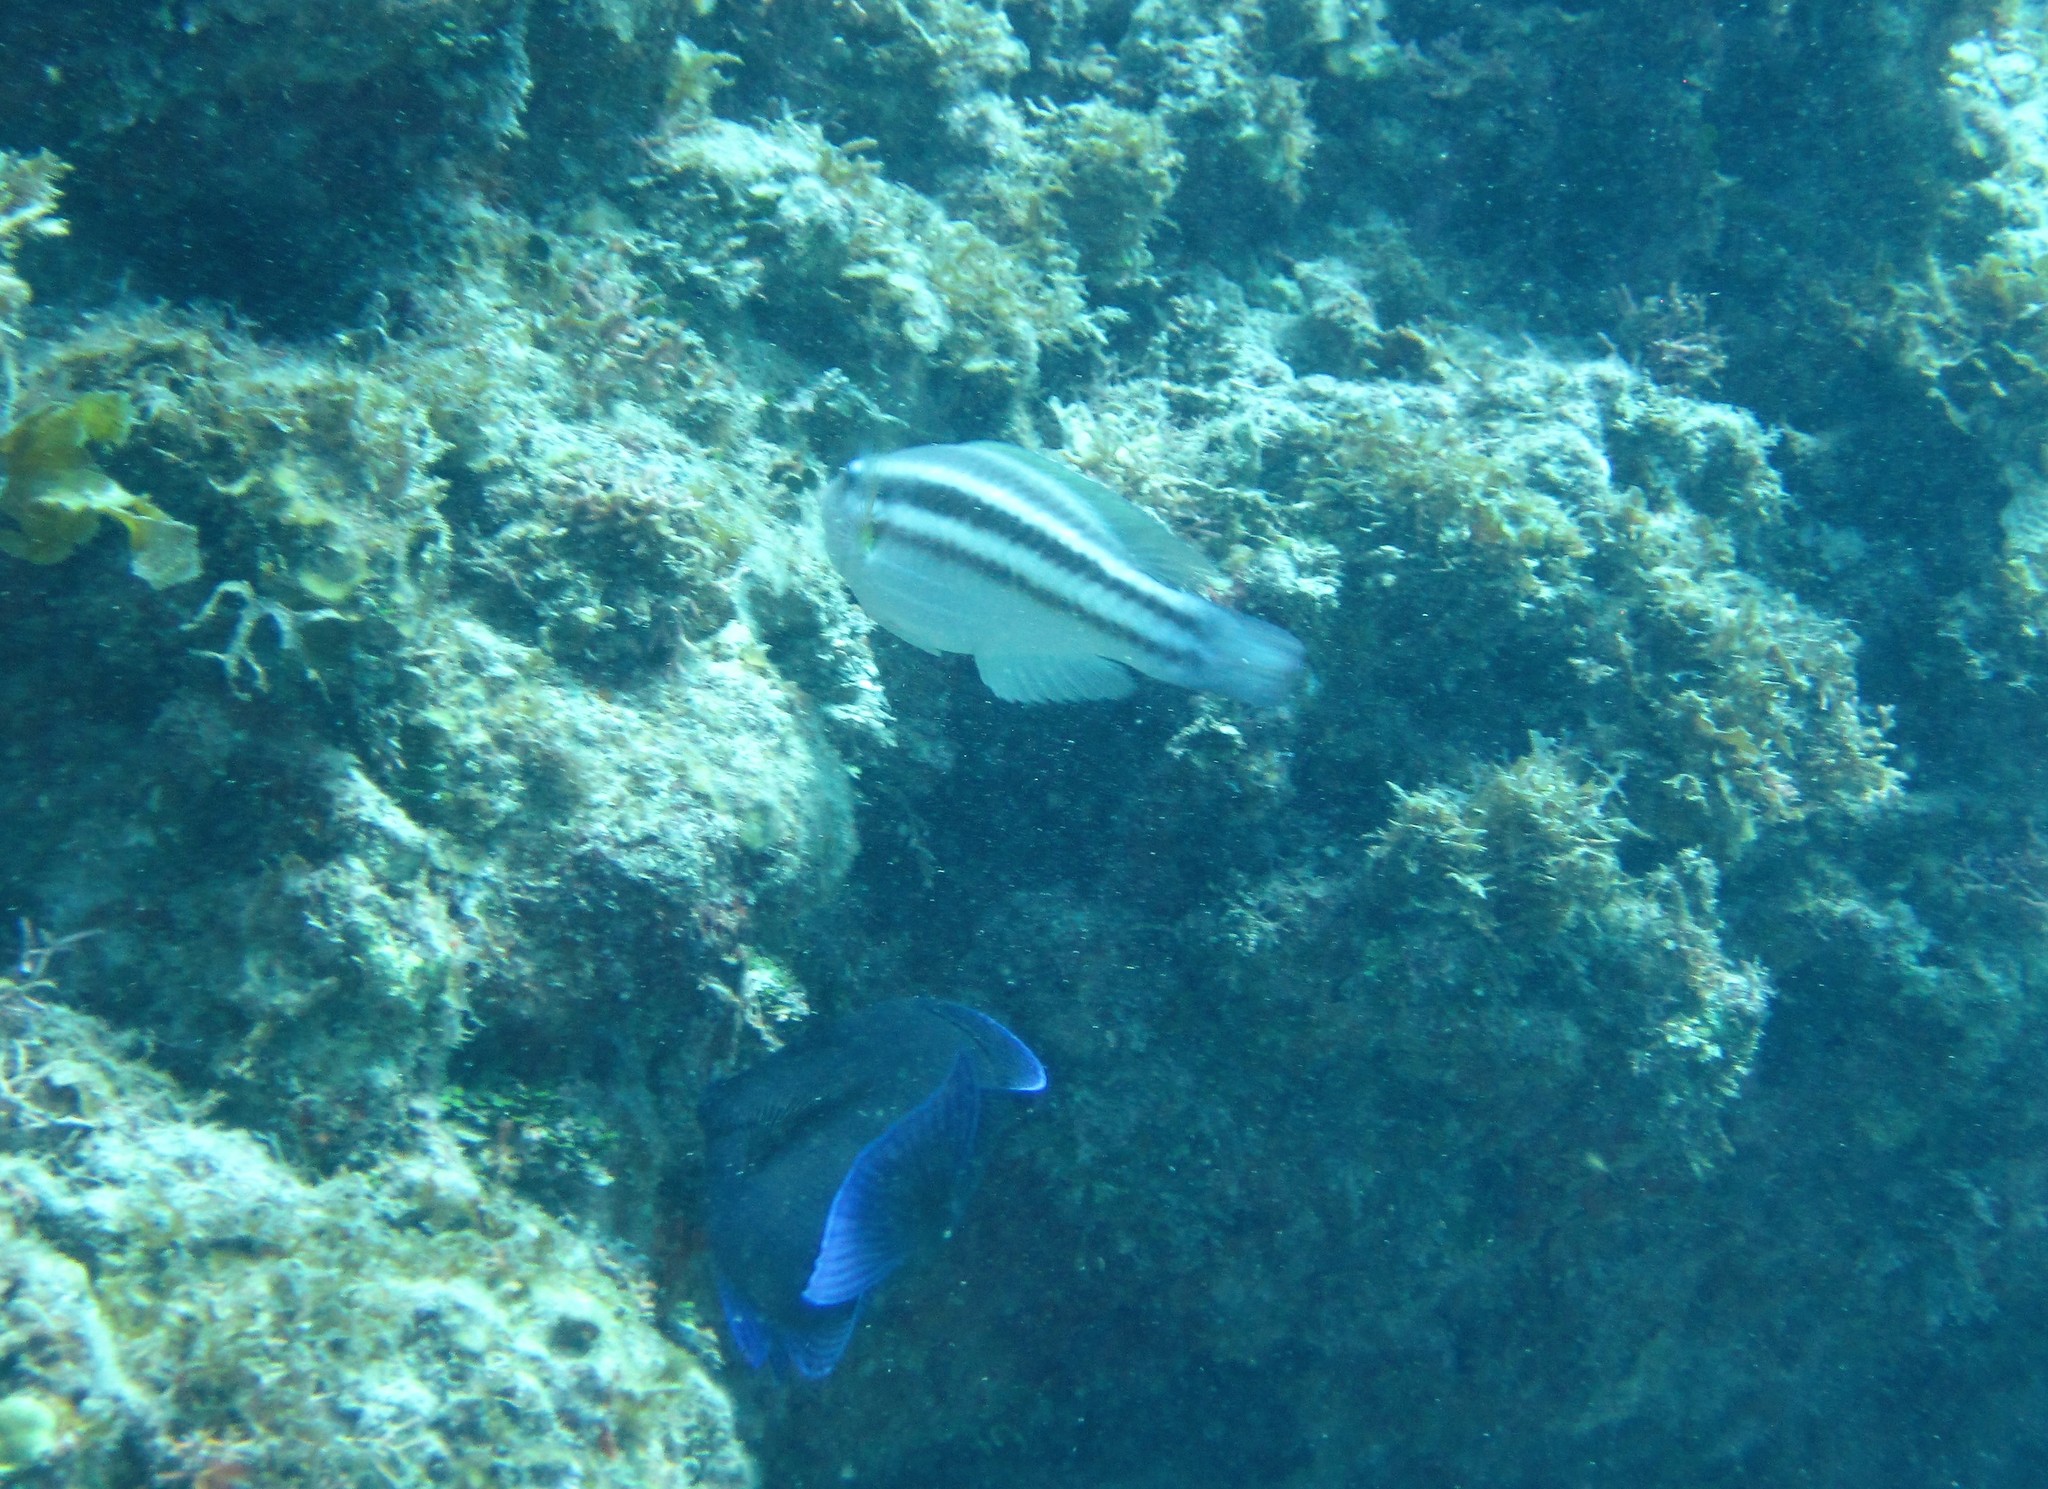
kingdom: Animalia
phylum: Chordata
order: Perciformes
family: Scaridae
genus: Scarus
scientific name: Scarus iseri
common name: Striped parrotfish
